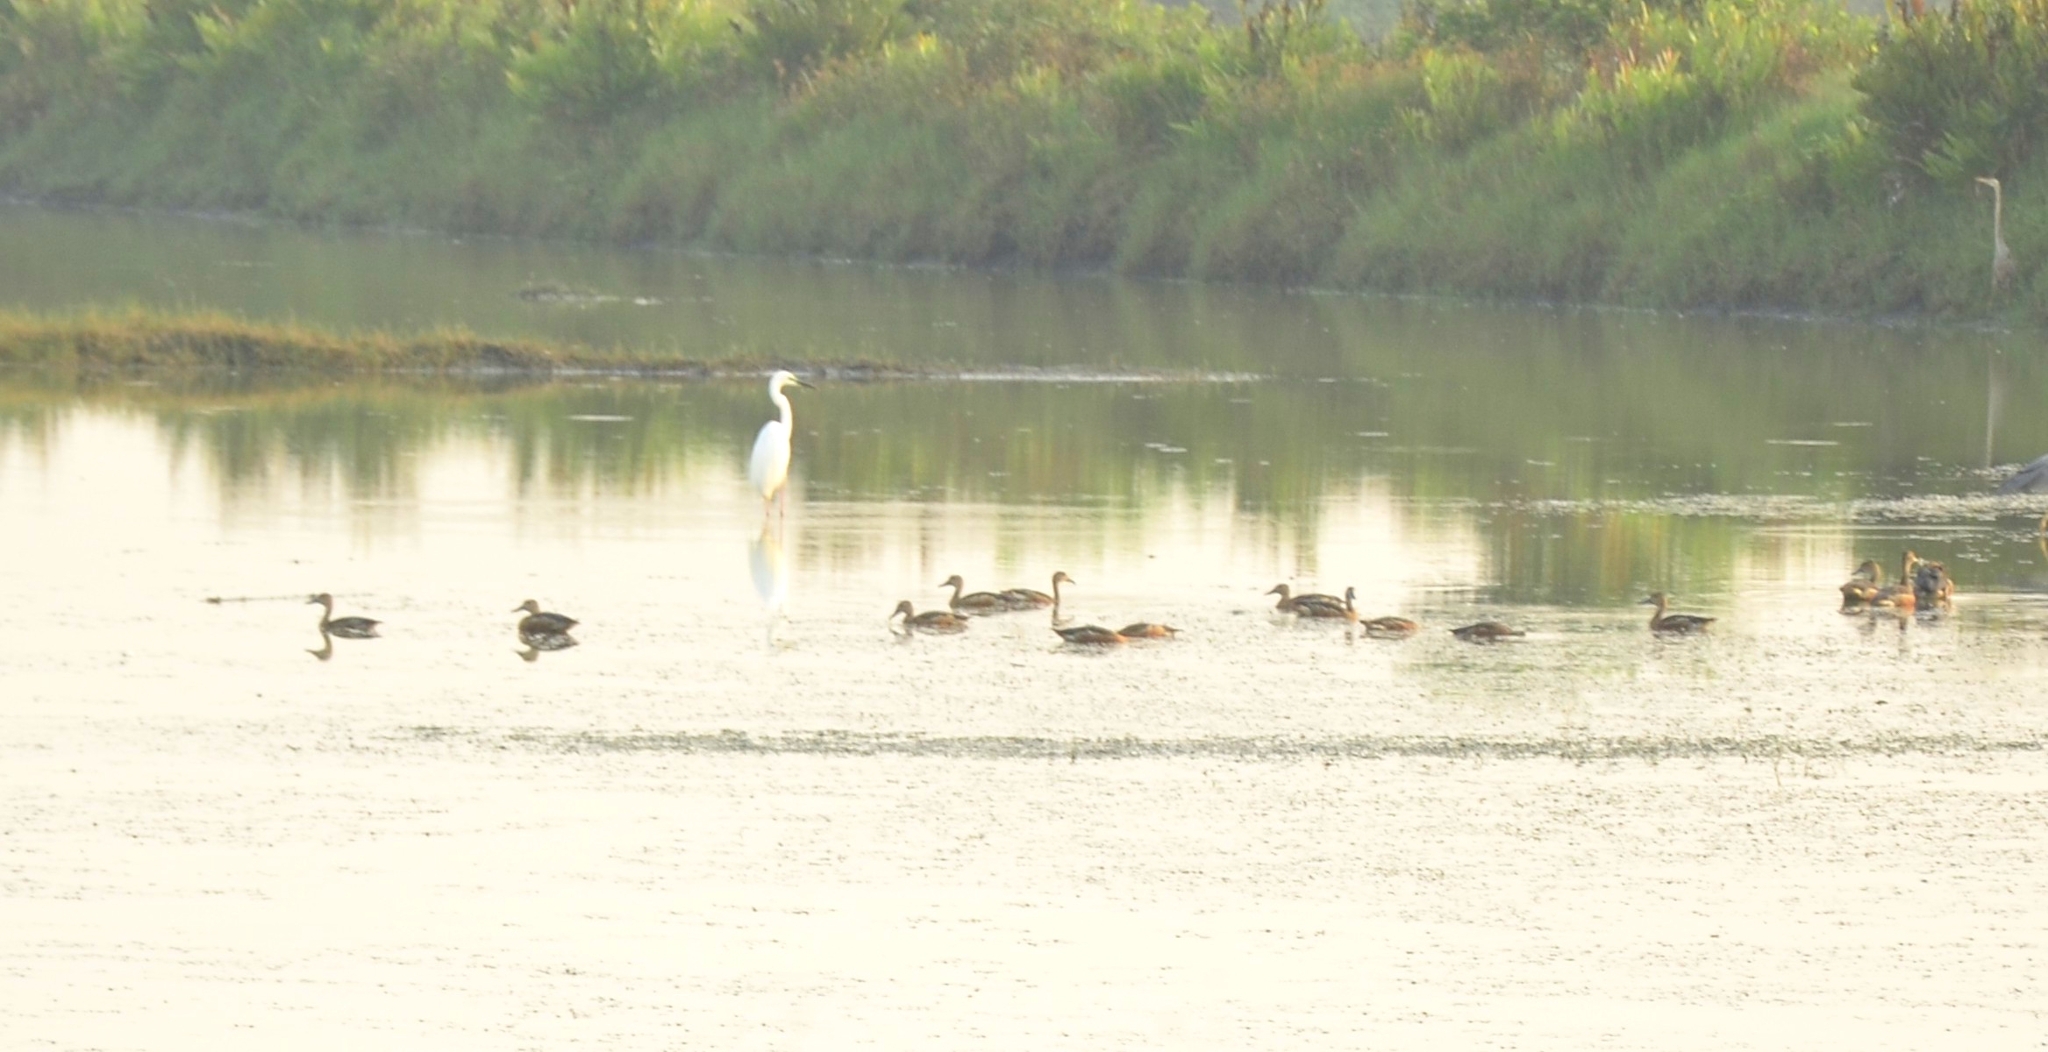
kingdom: Animalia
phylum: Chordata
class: Aves
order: Anseriformes
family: Anatidae
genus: Dendrocygna
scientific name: Dendrocygna javanica
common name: Lesser whistling-duck
